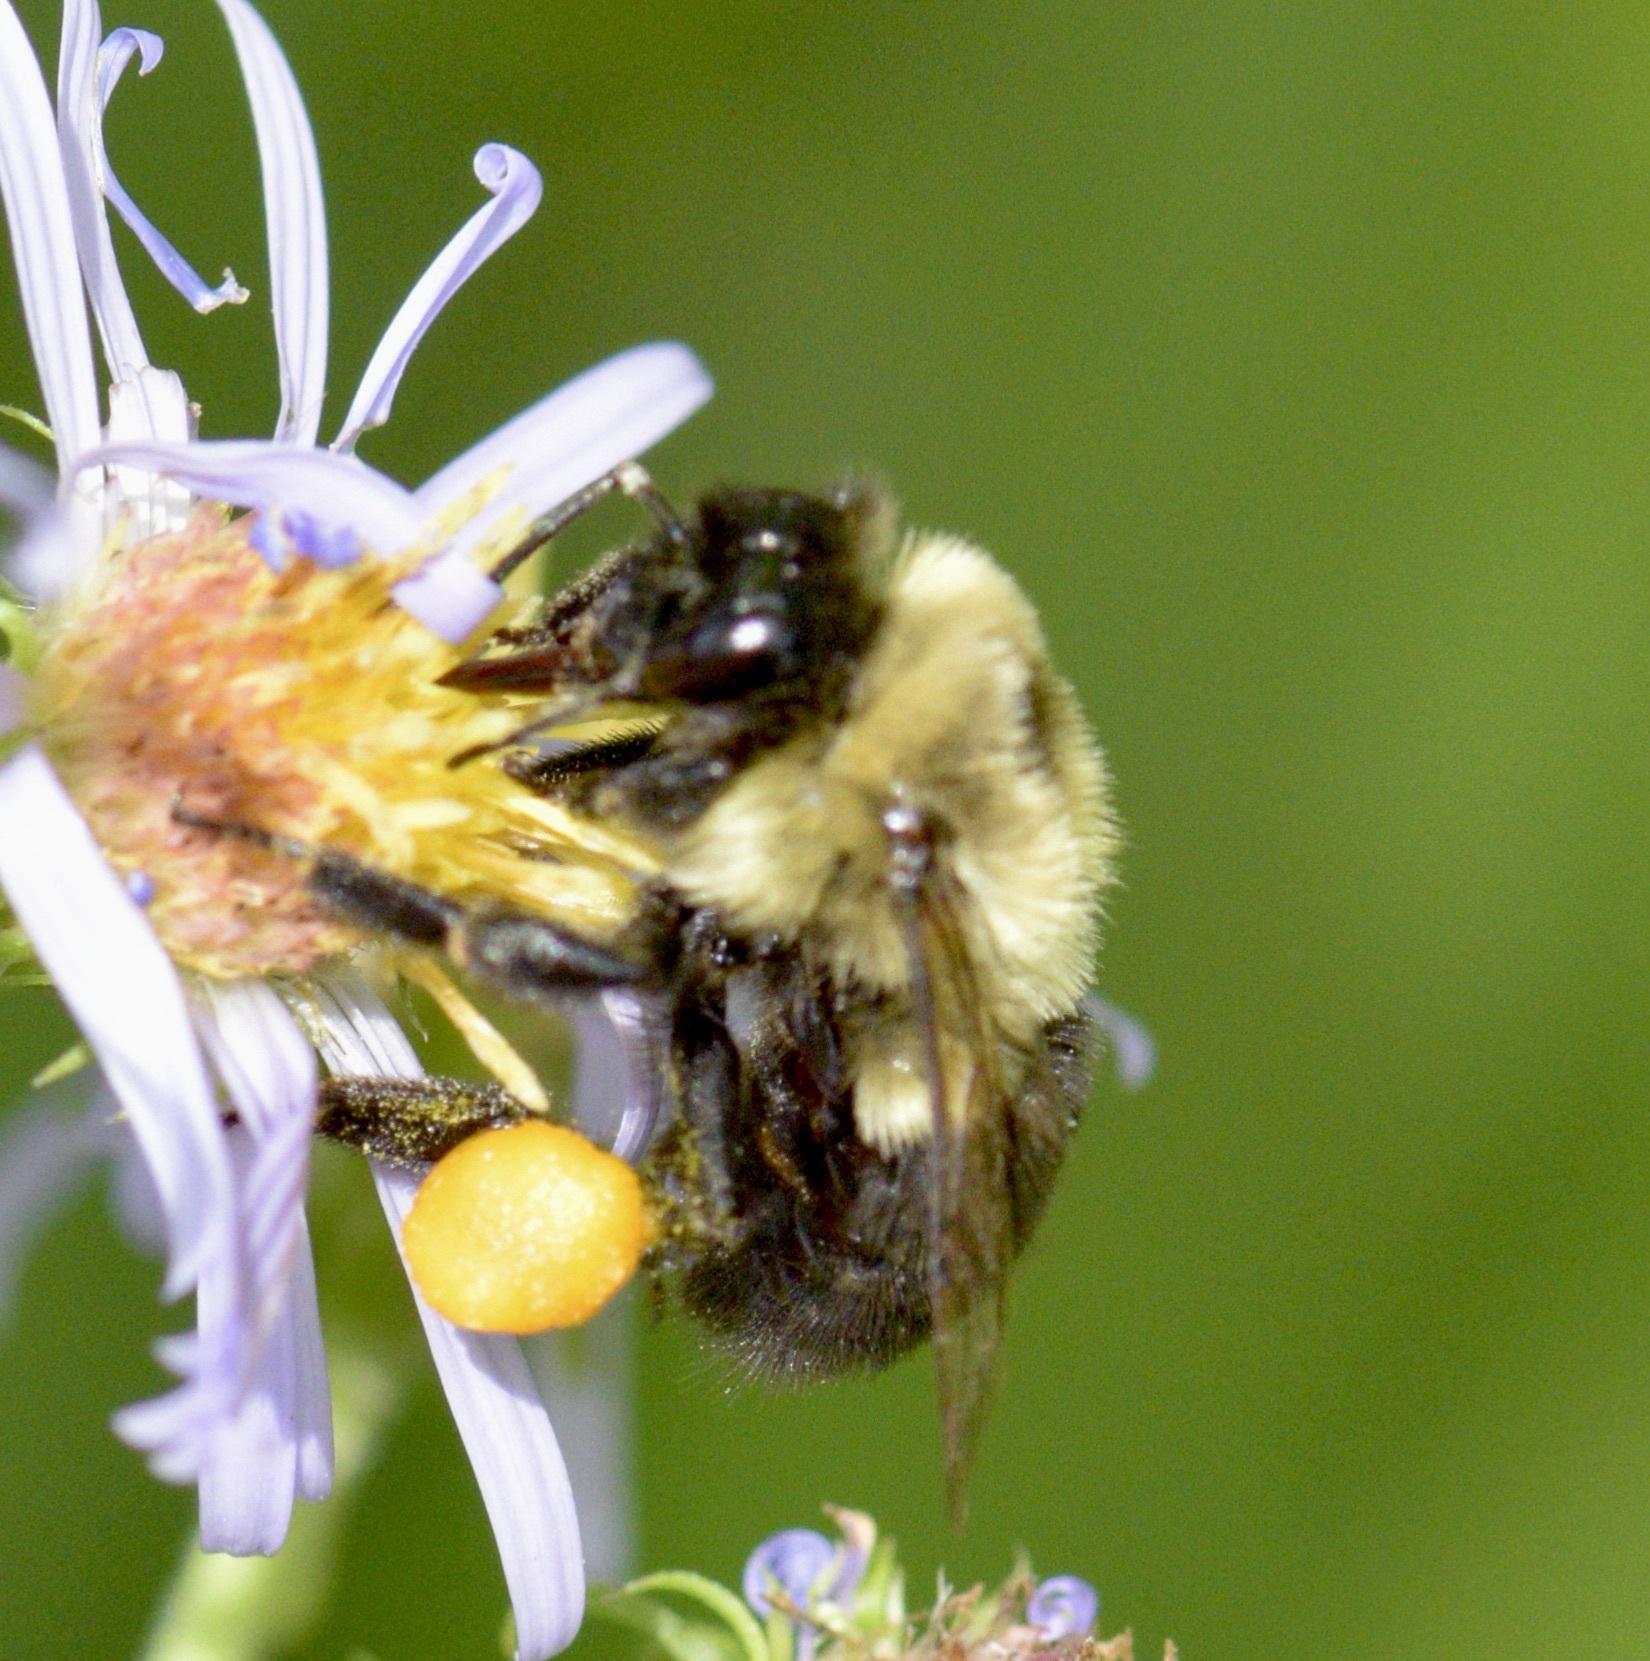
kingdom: Animalia
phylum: Arthropoda
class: Insecta
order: Hymenoptera
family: Apidae
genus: Bombus
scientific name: Bombus impatiens
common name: Common eastern bumble bee
